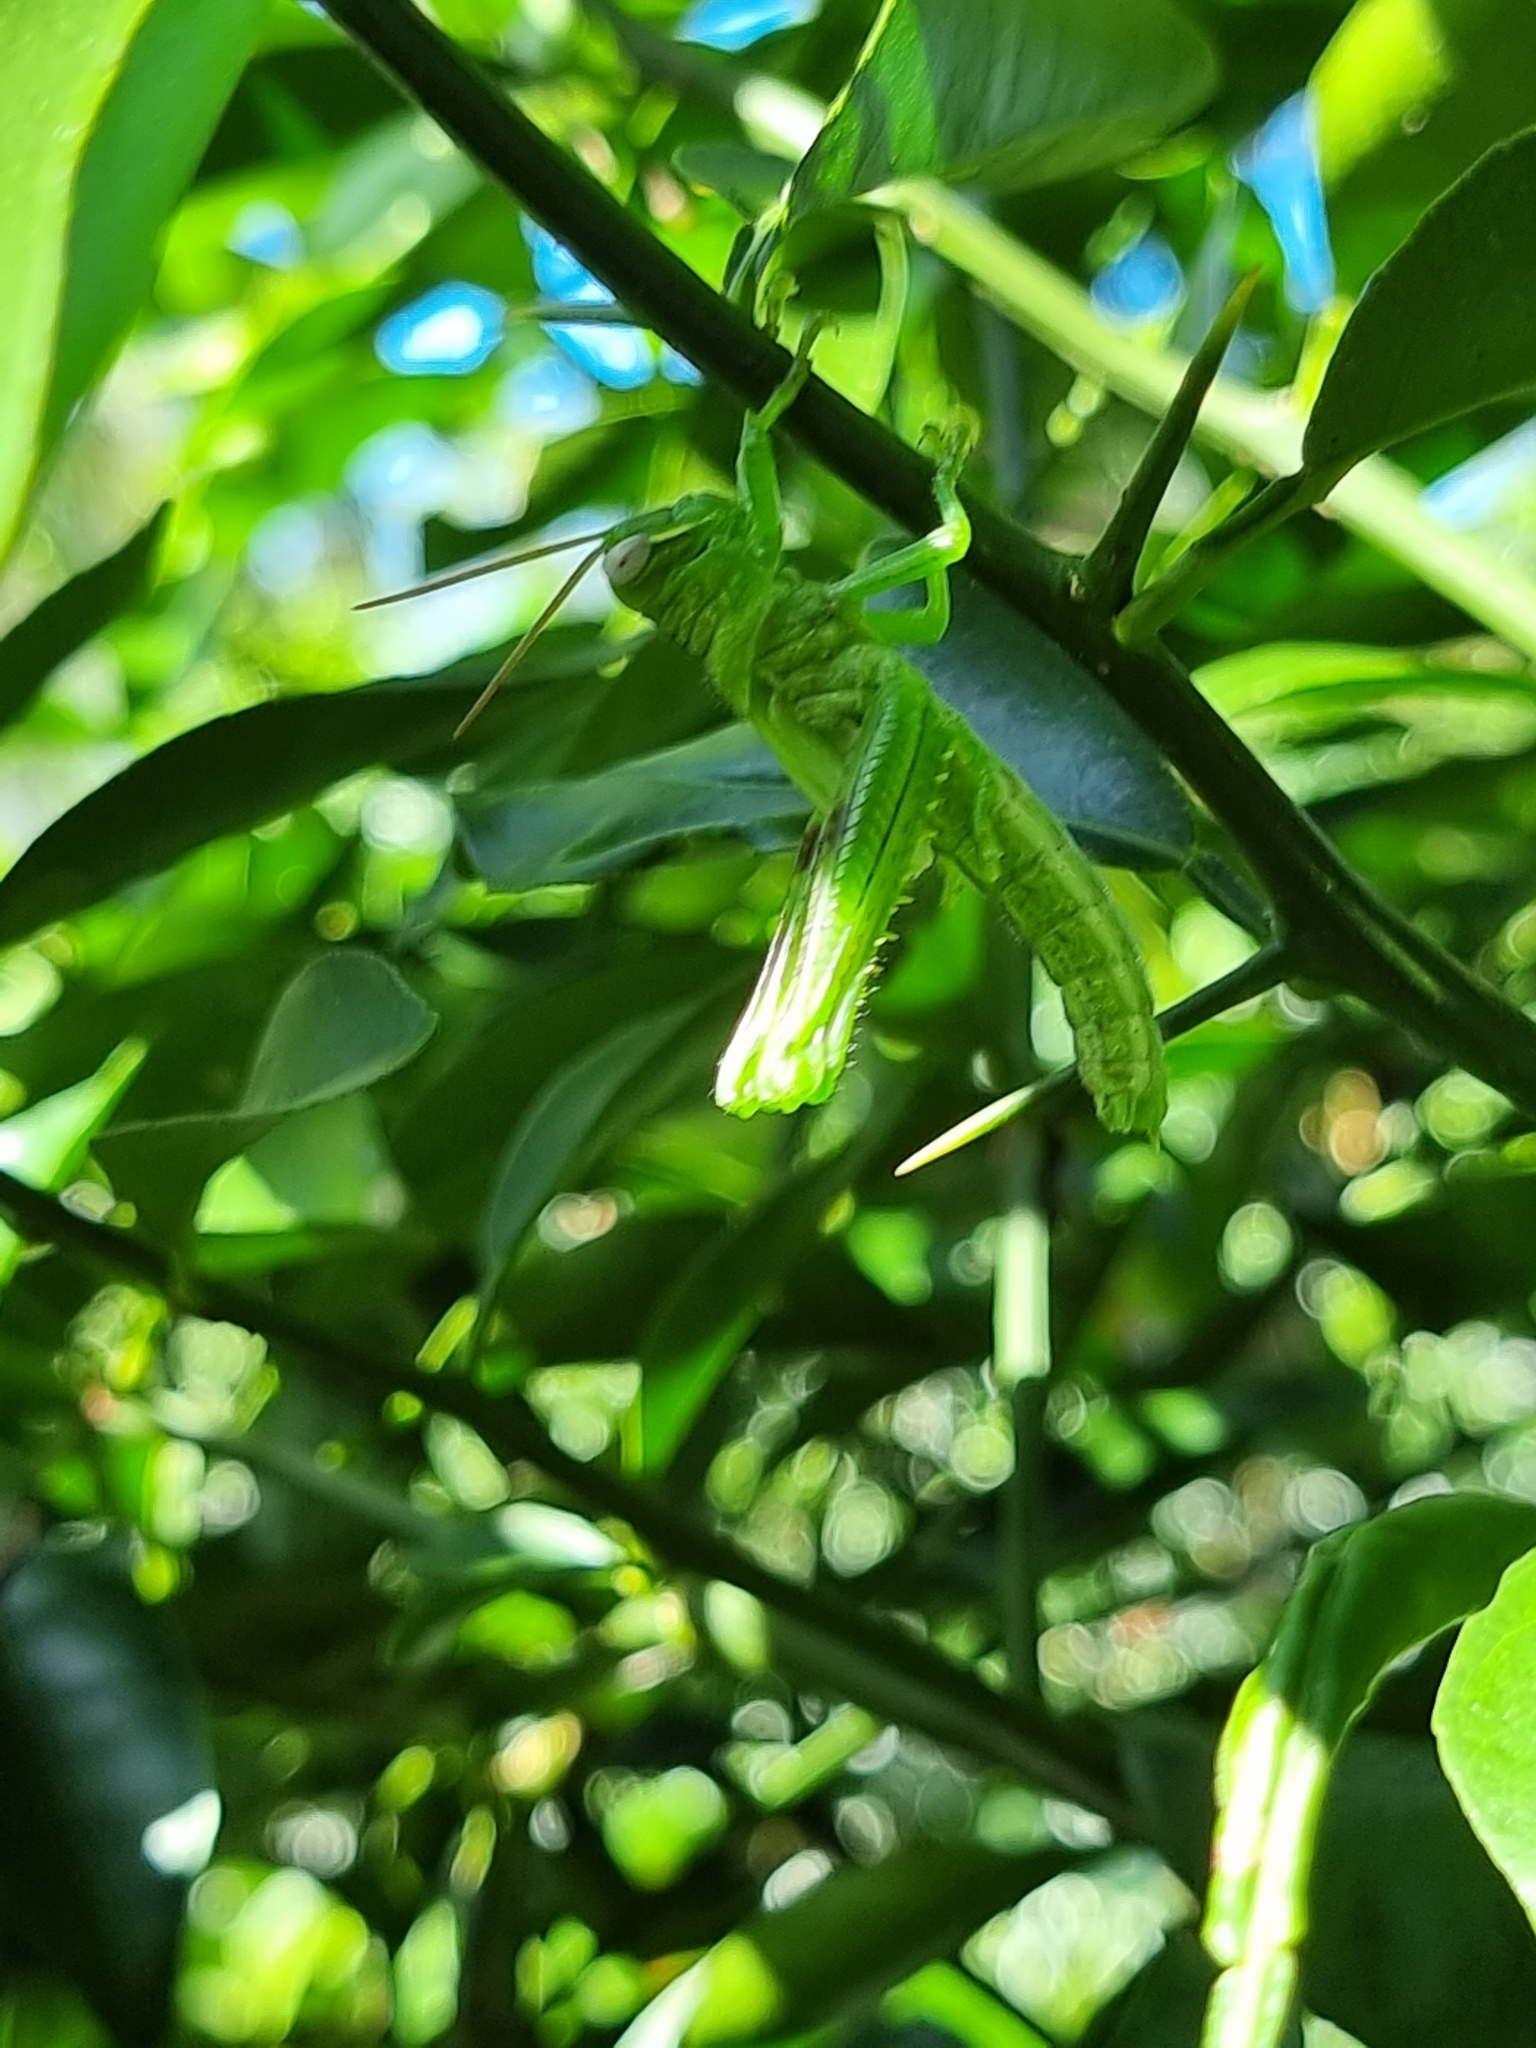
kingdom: Animalia
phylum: Arthropoda
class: Insecta
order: Orthoptera
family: Acrididae
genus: Valanga
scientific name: Valanga irregularis
